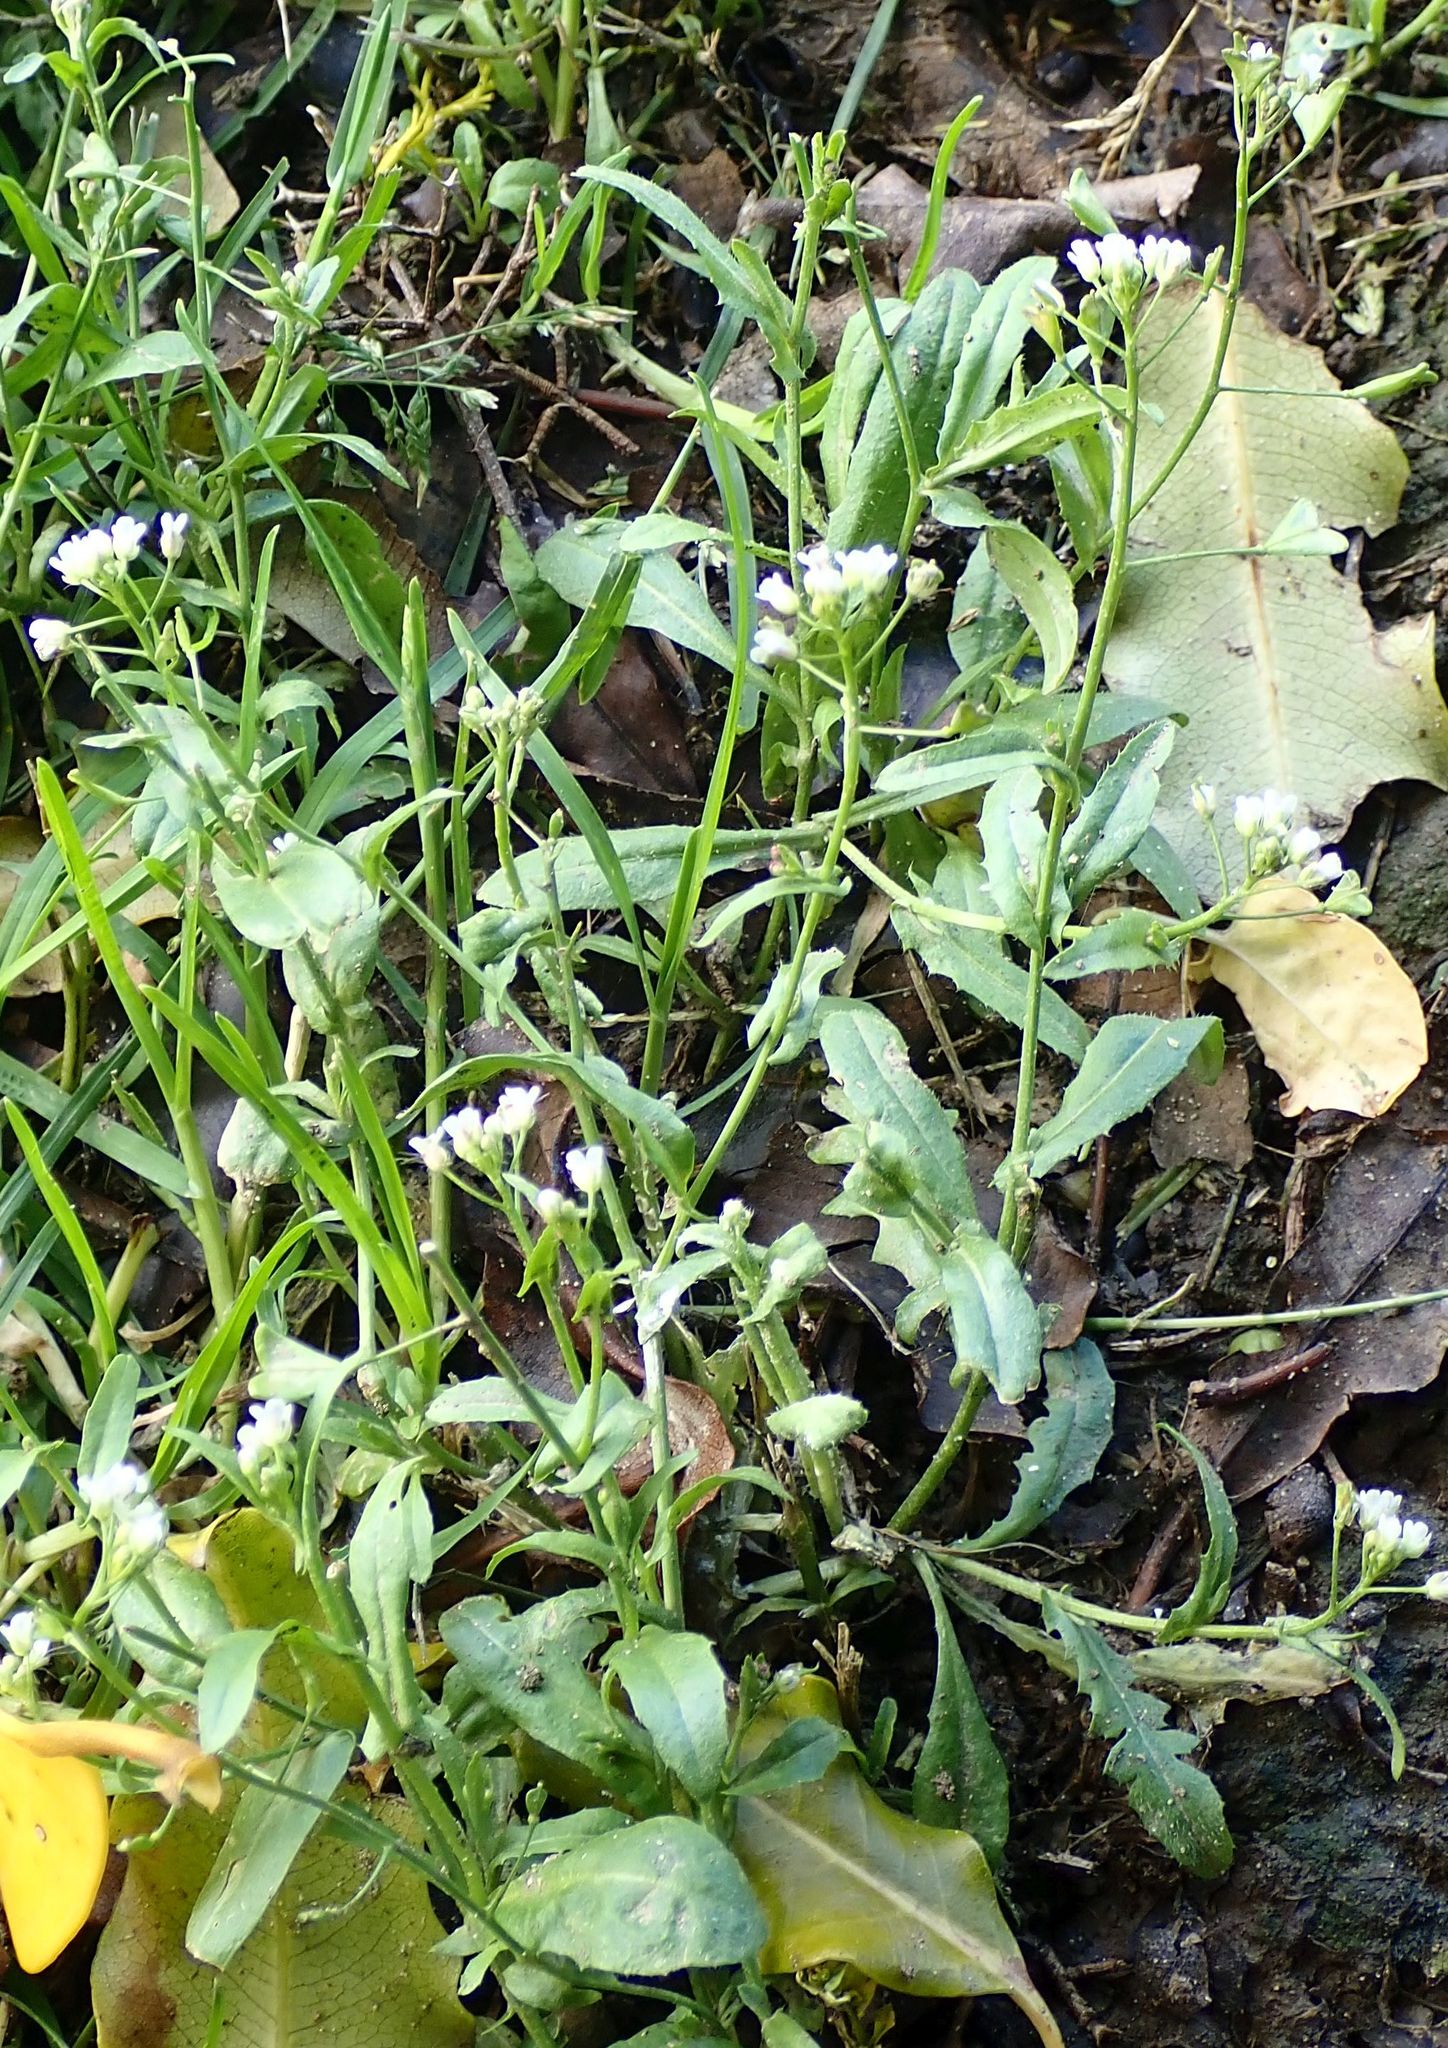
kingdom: Plantae
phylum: Tracheophyta
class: Magnoliopsida
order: Brassicales
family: Brassicaceae
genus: Capsella
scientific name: Capsella bursa-pastoris
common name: Shepherd's purse
